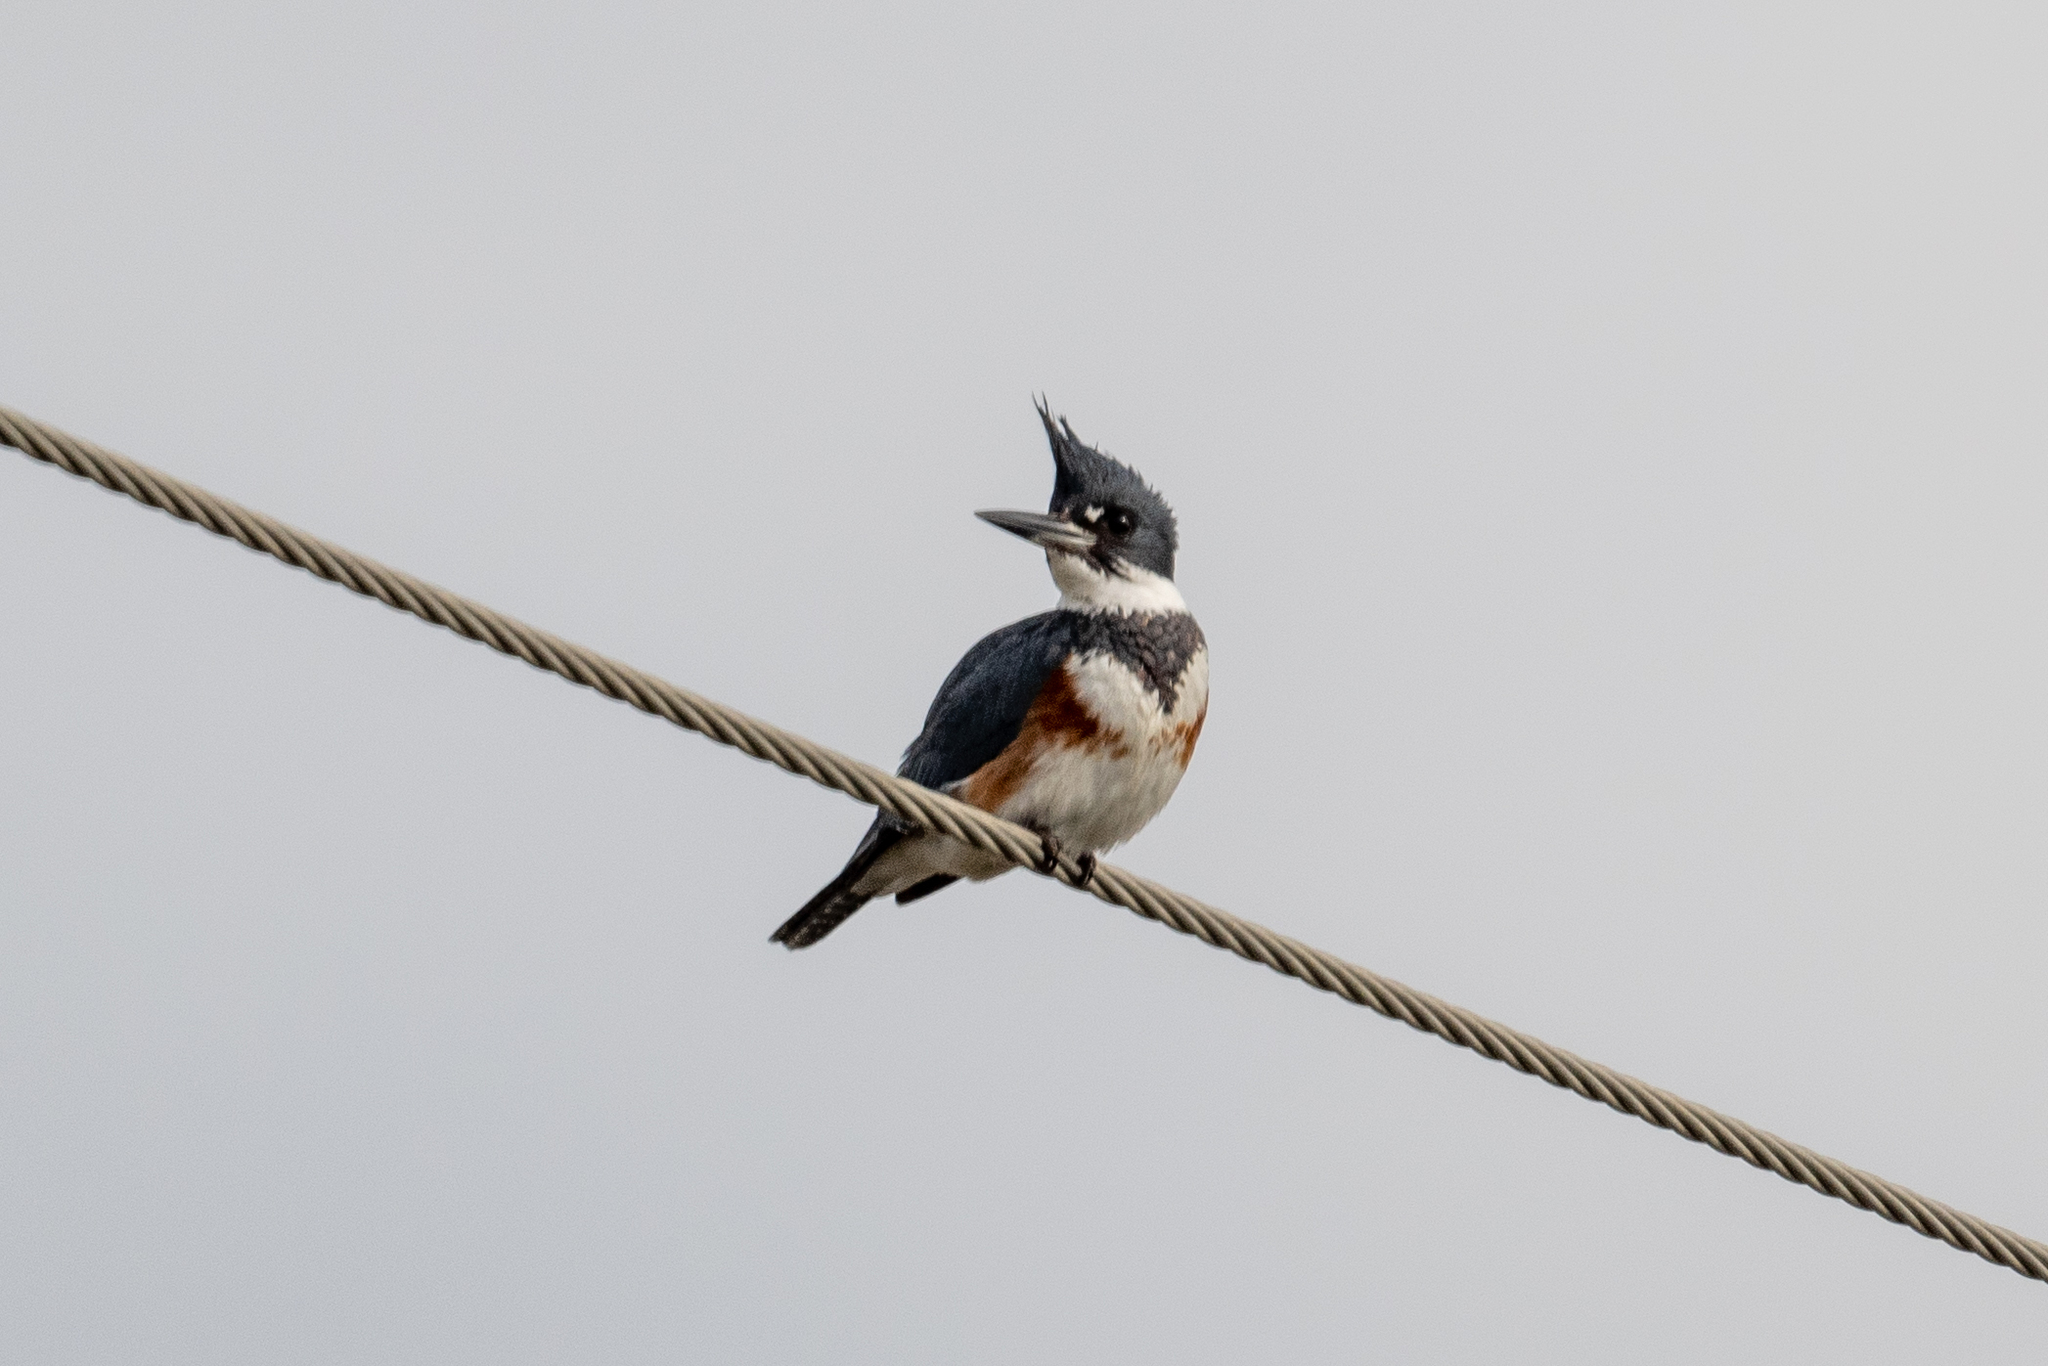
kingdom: Animalia
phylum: Chordata
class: Aves
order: Coraciiformes
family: Alcedinidae
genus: Megaceryle
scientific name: Megaceryle alcyon
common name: Belted kingfisher
